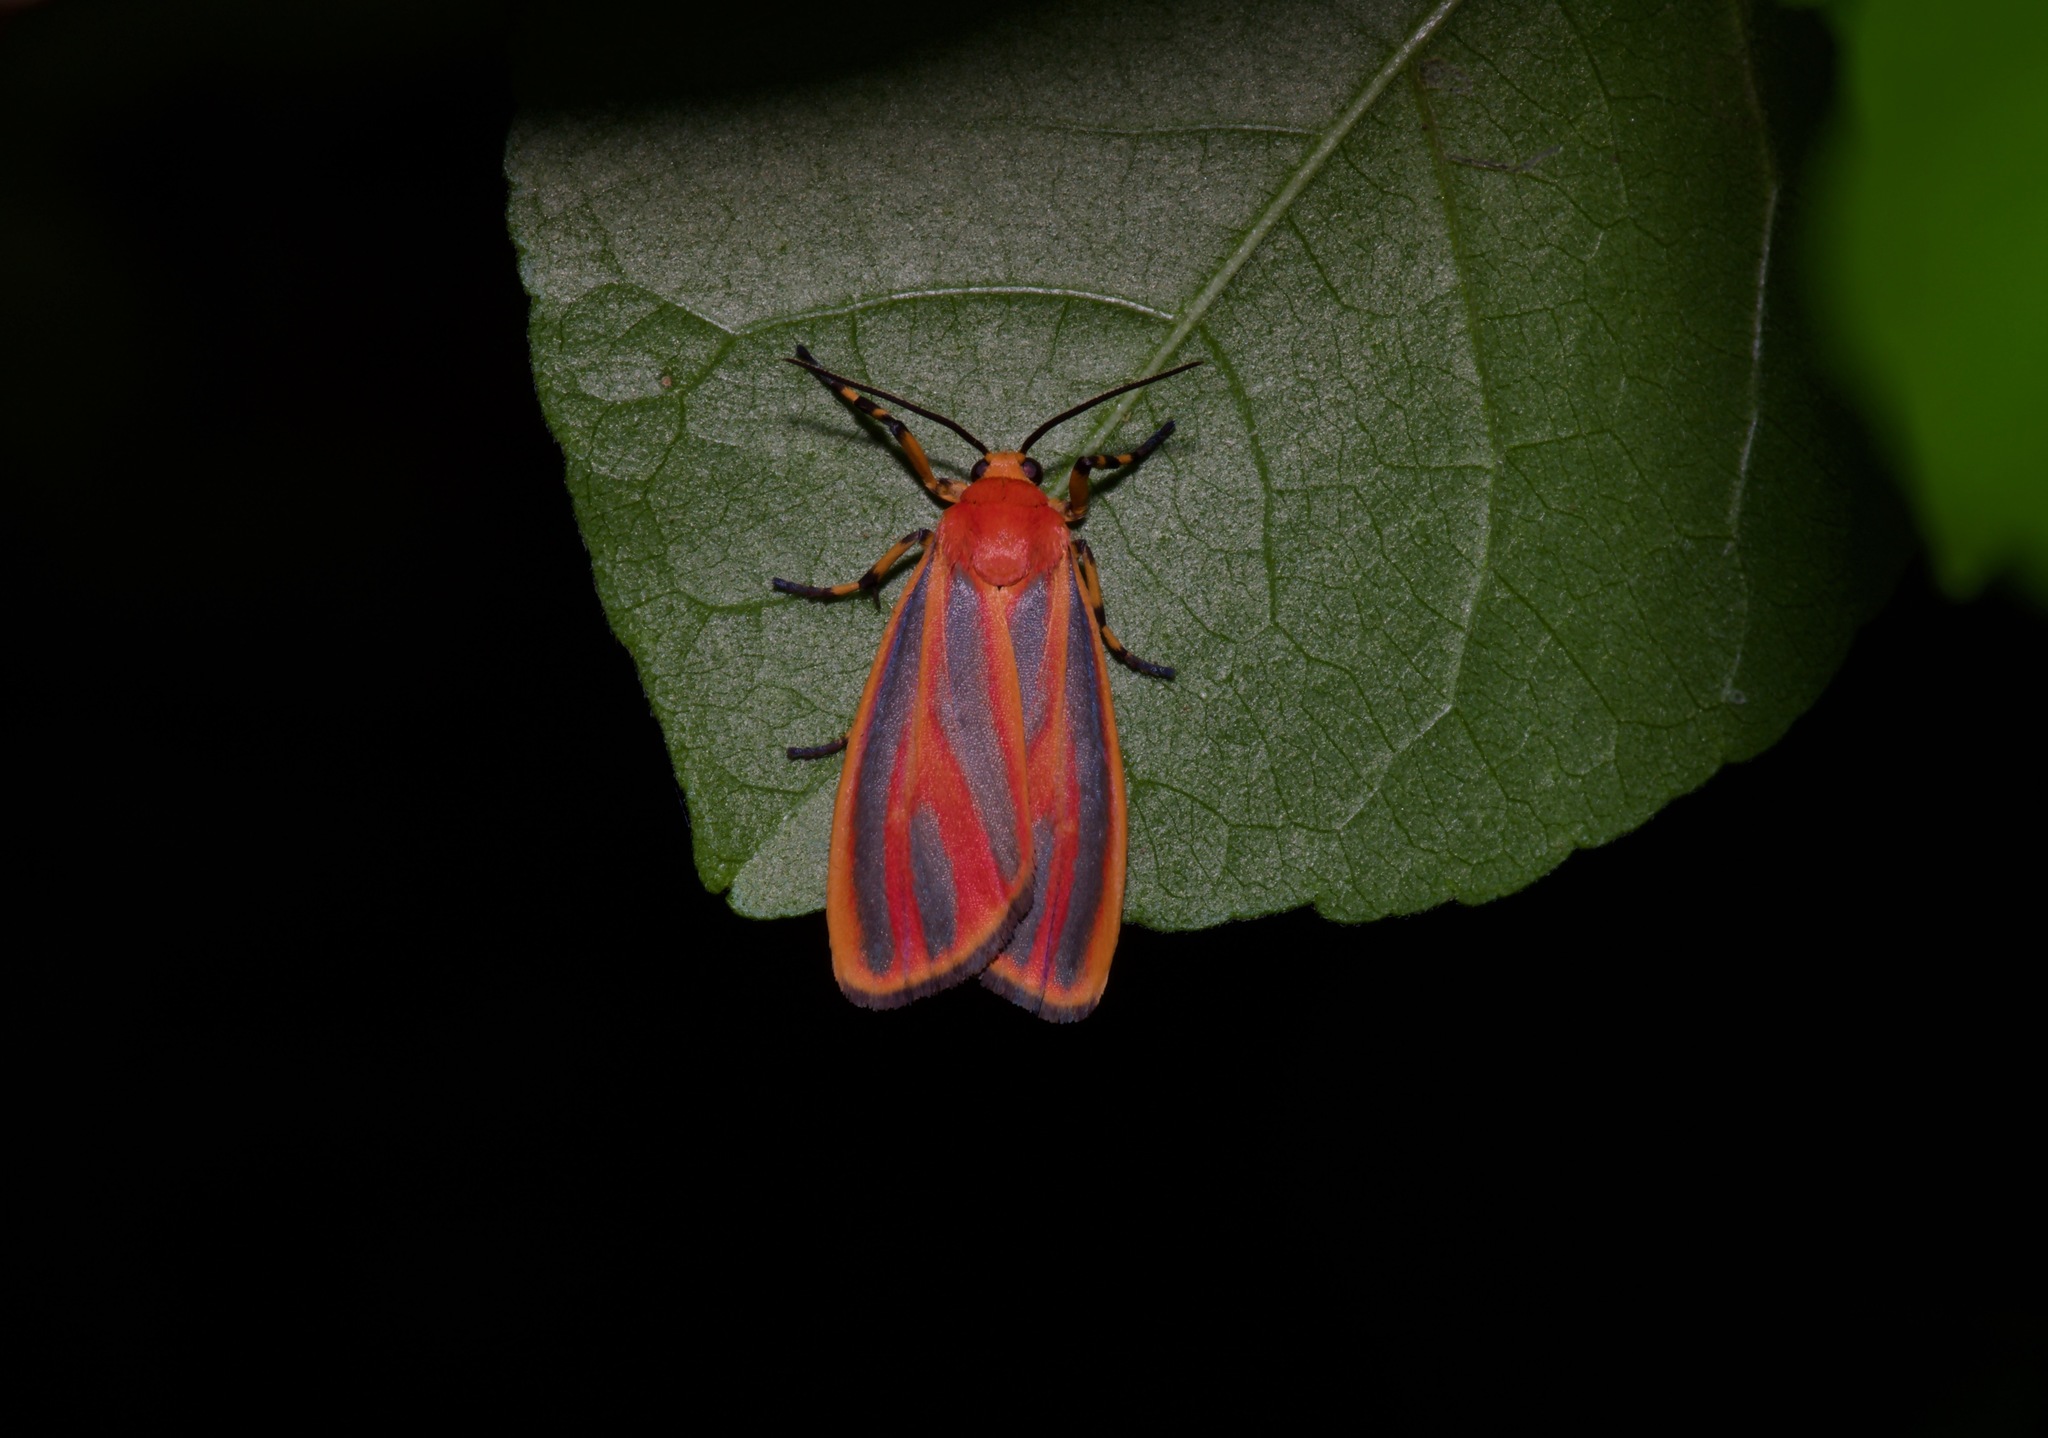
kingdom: Animalia
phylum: Arthropoda
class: Insecta
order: Lepidoptera
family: Erebidae
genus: Hypoprepia
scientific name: Hypoprepia miniata
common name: Scarlet-winged lichen moth
